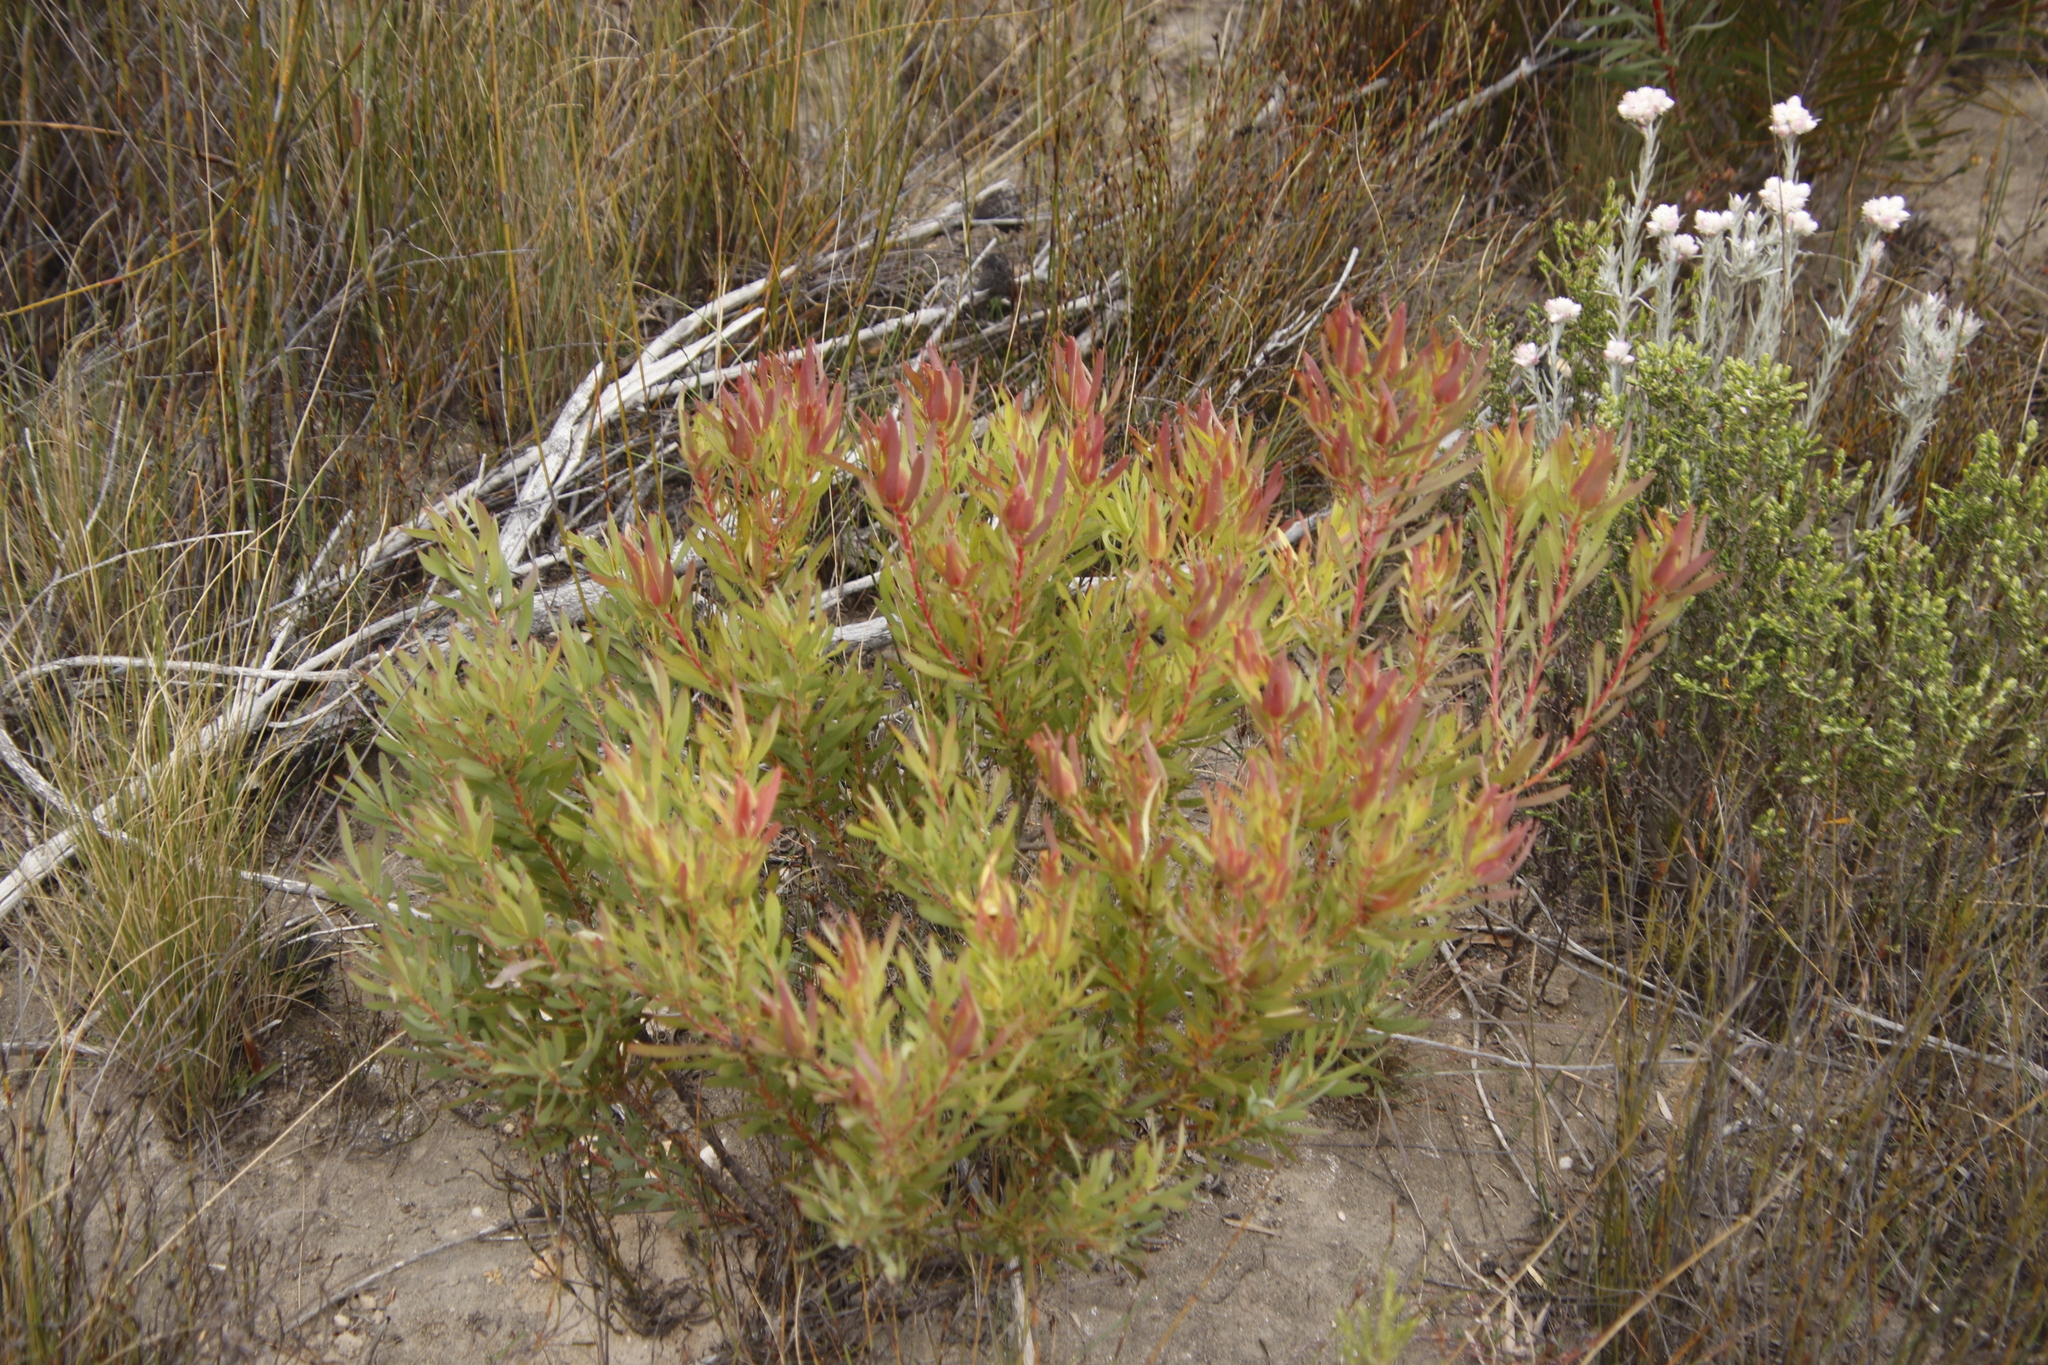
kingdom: Plantae
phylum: Tracheophyta
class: Magnoliopsida
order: Proteales
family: Proteaceae
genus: Leucadendron
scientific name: Leucadendron salignum
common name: Common sunshine conebush
